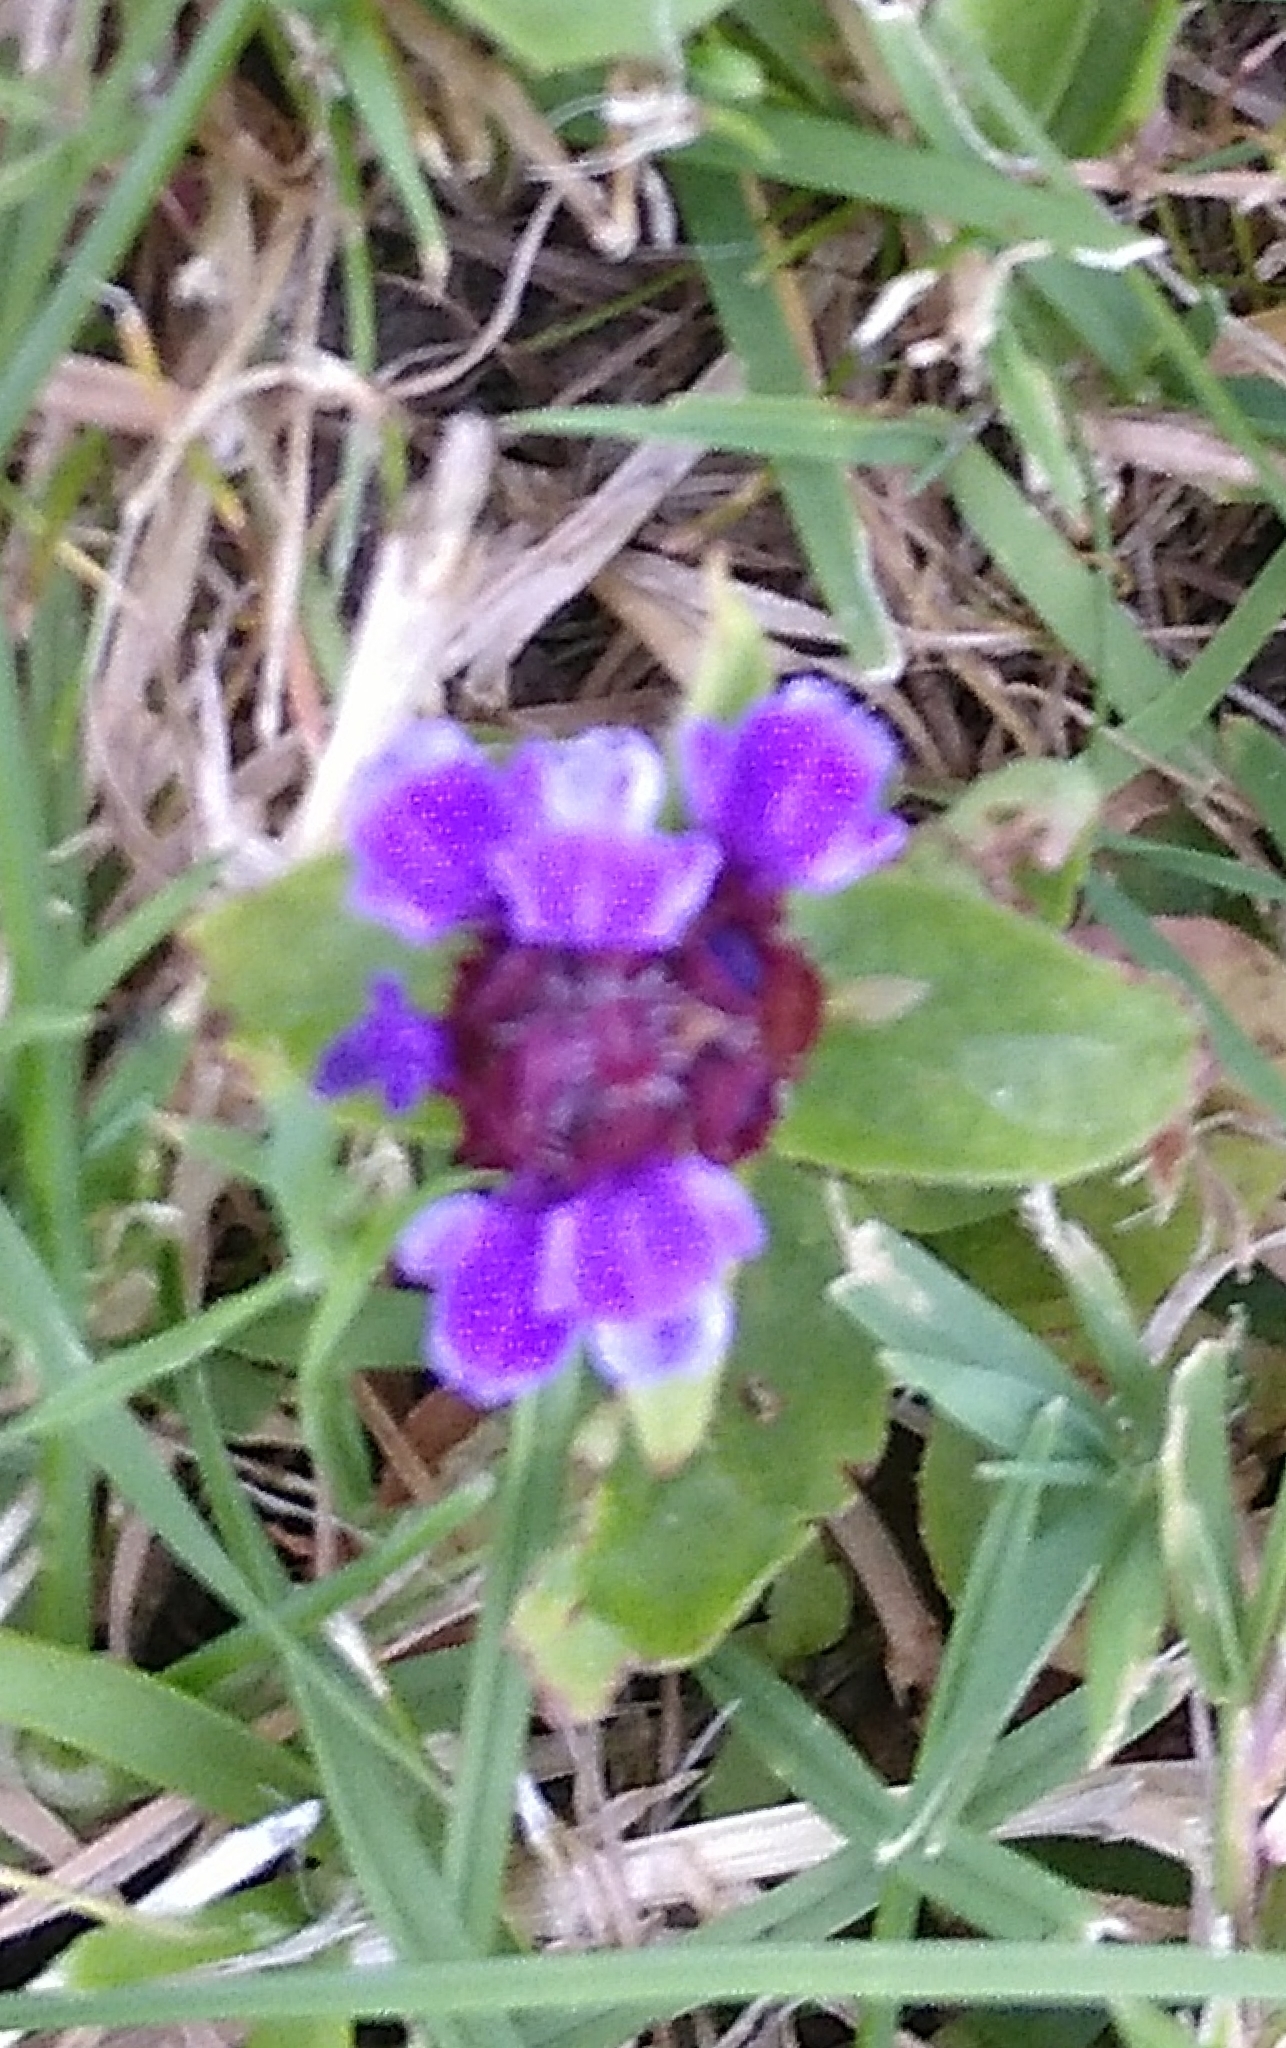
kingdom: Plantae
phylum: Tracheophyta
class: Magnoliopsida
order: Lamiales
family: Lamiaceae
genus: Prunella
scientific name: Prunella vulgaris
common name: Heal-all
